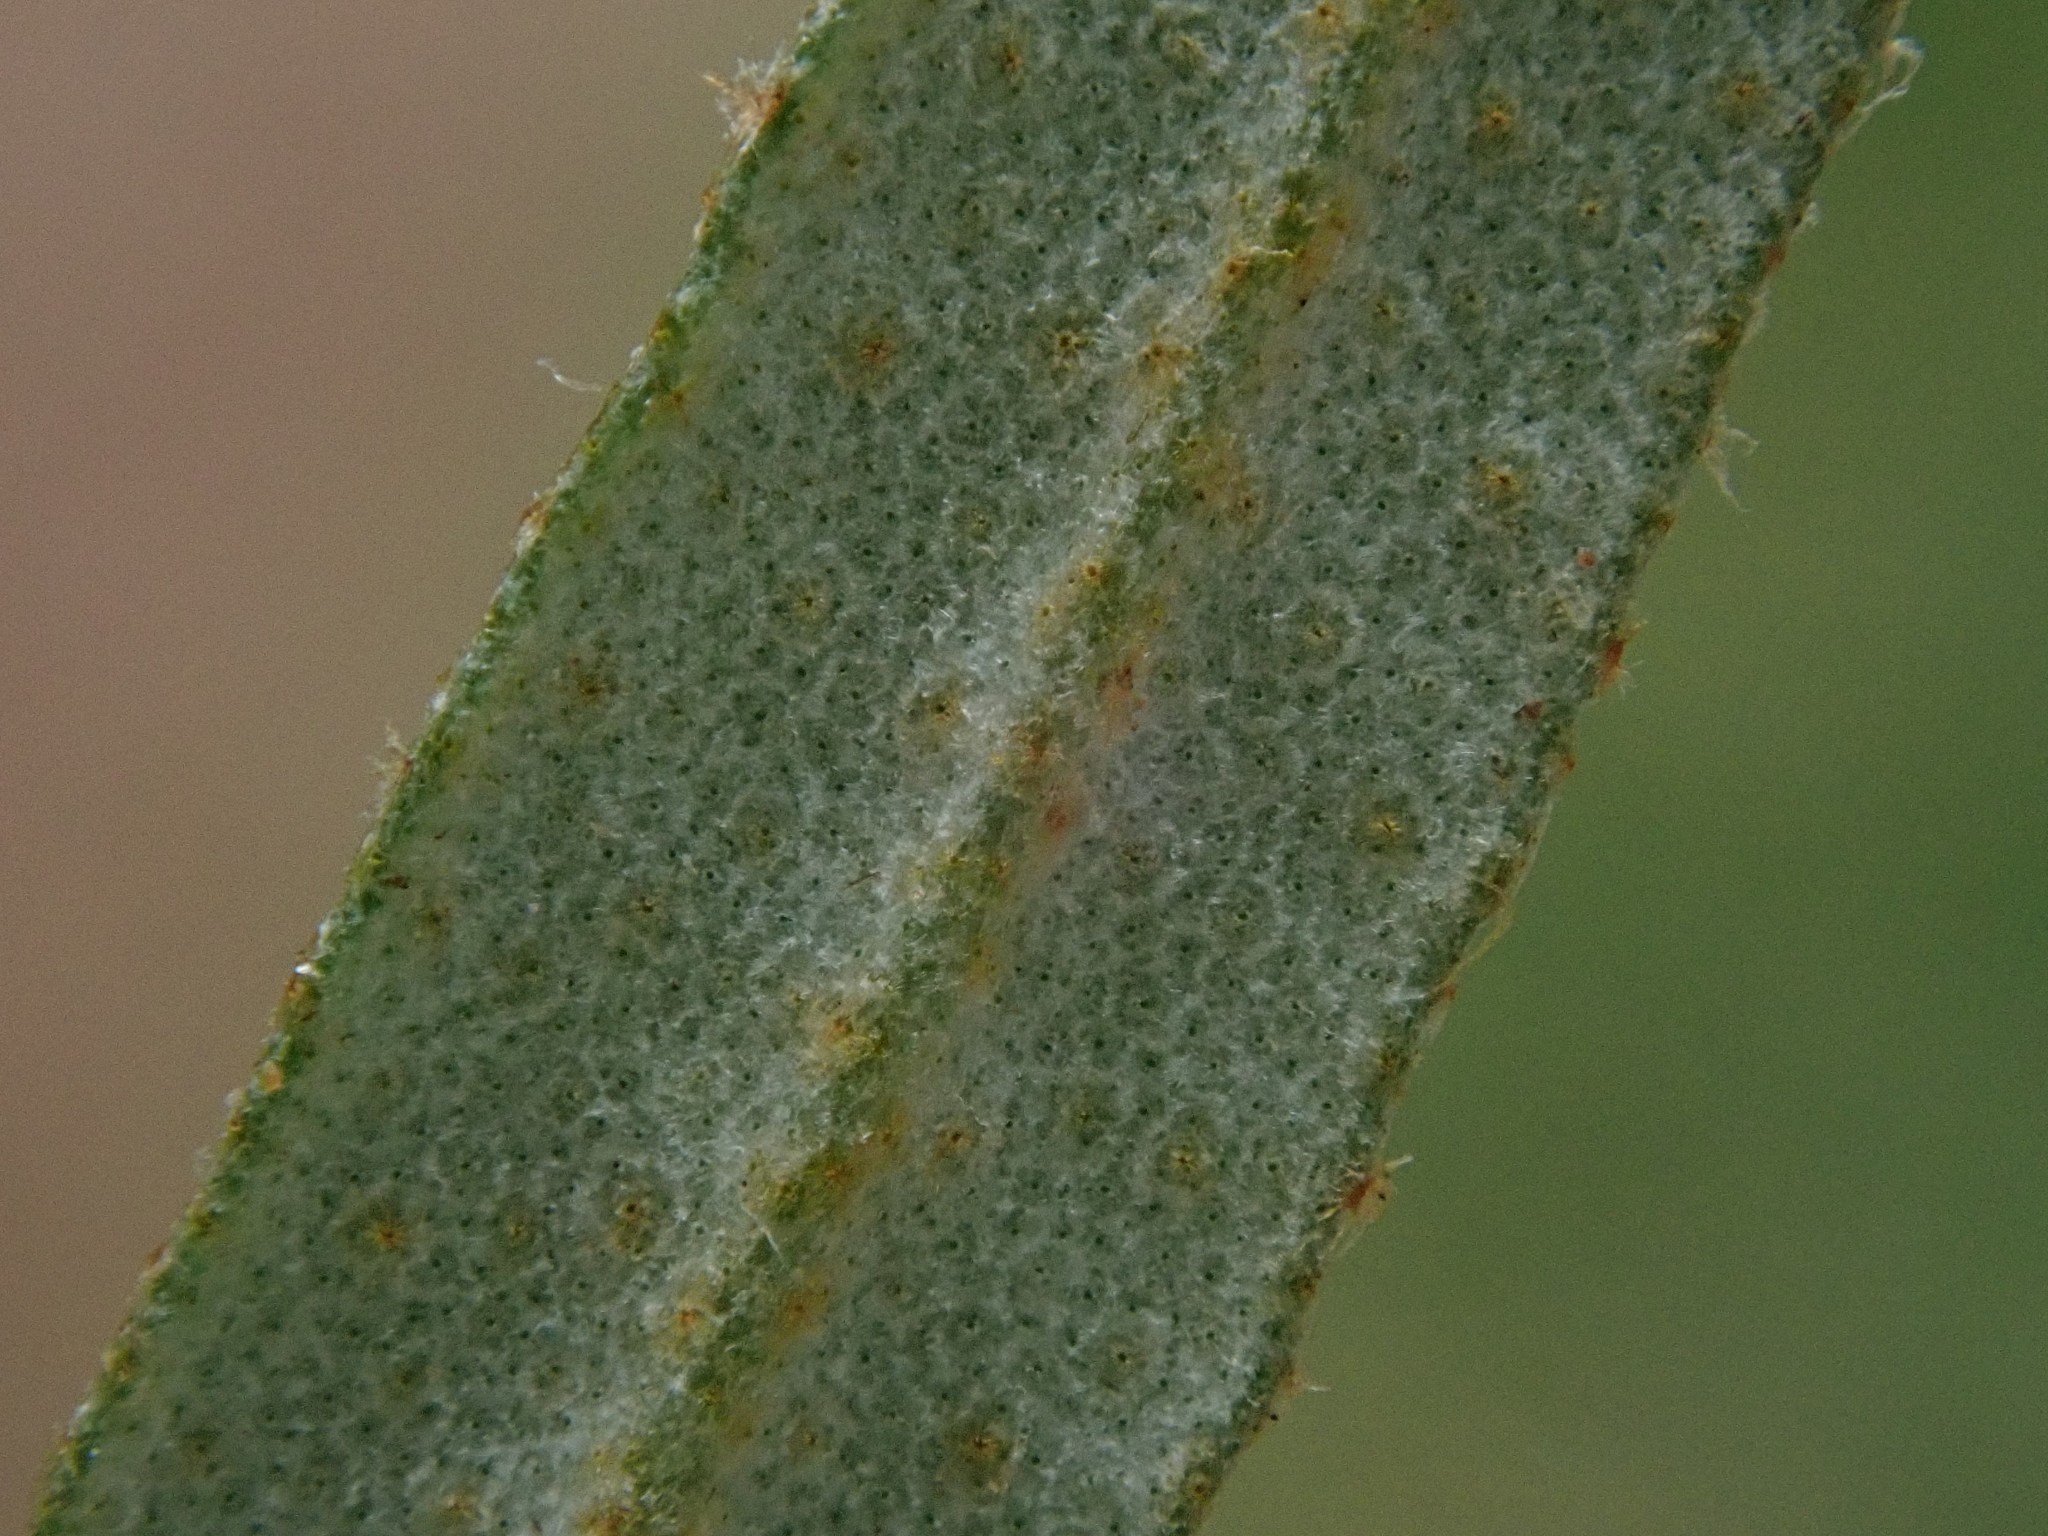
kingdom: Plantae
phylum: Tracheophyta
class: Magnoliopsida
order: Rosales
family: Elaeagnaceae
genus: Hippophae
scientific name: Hippophae rhamnoides
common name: Sea-buckthorn
